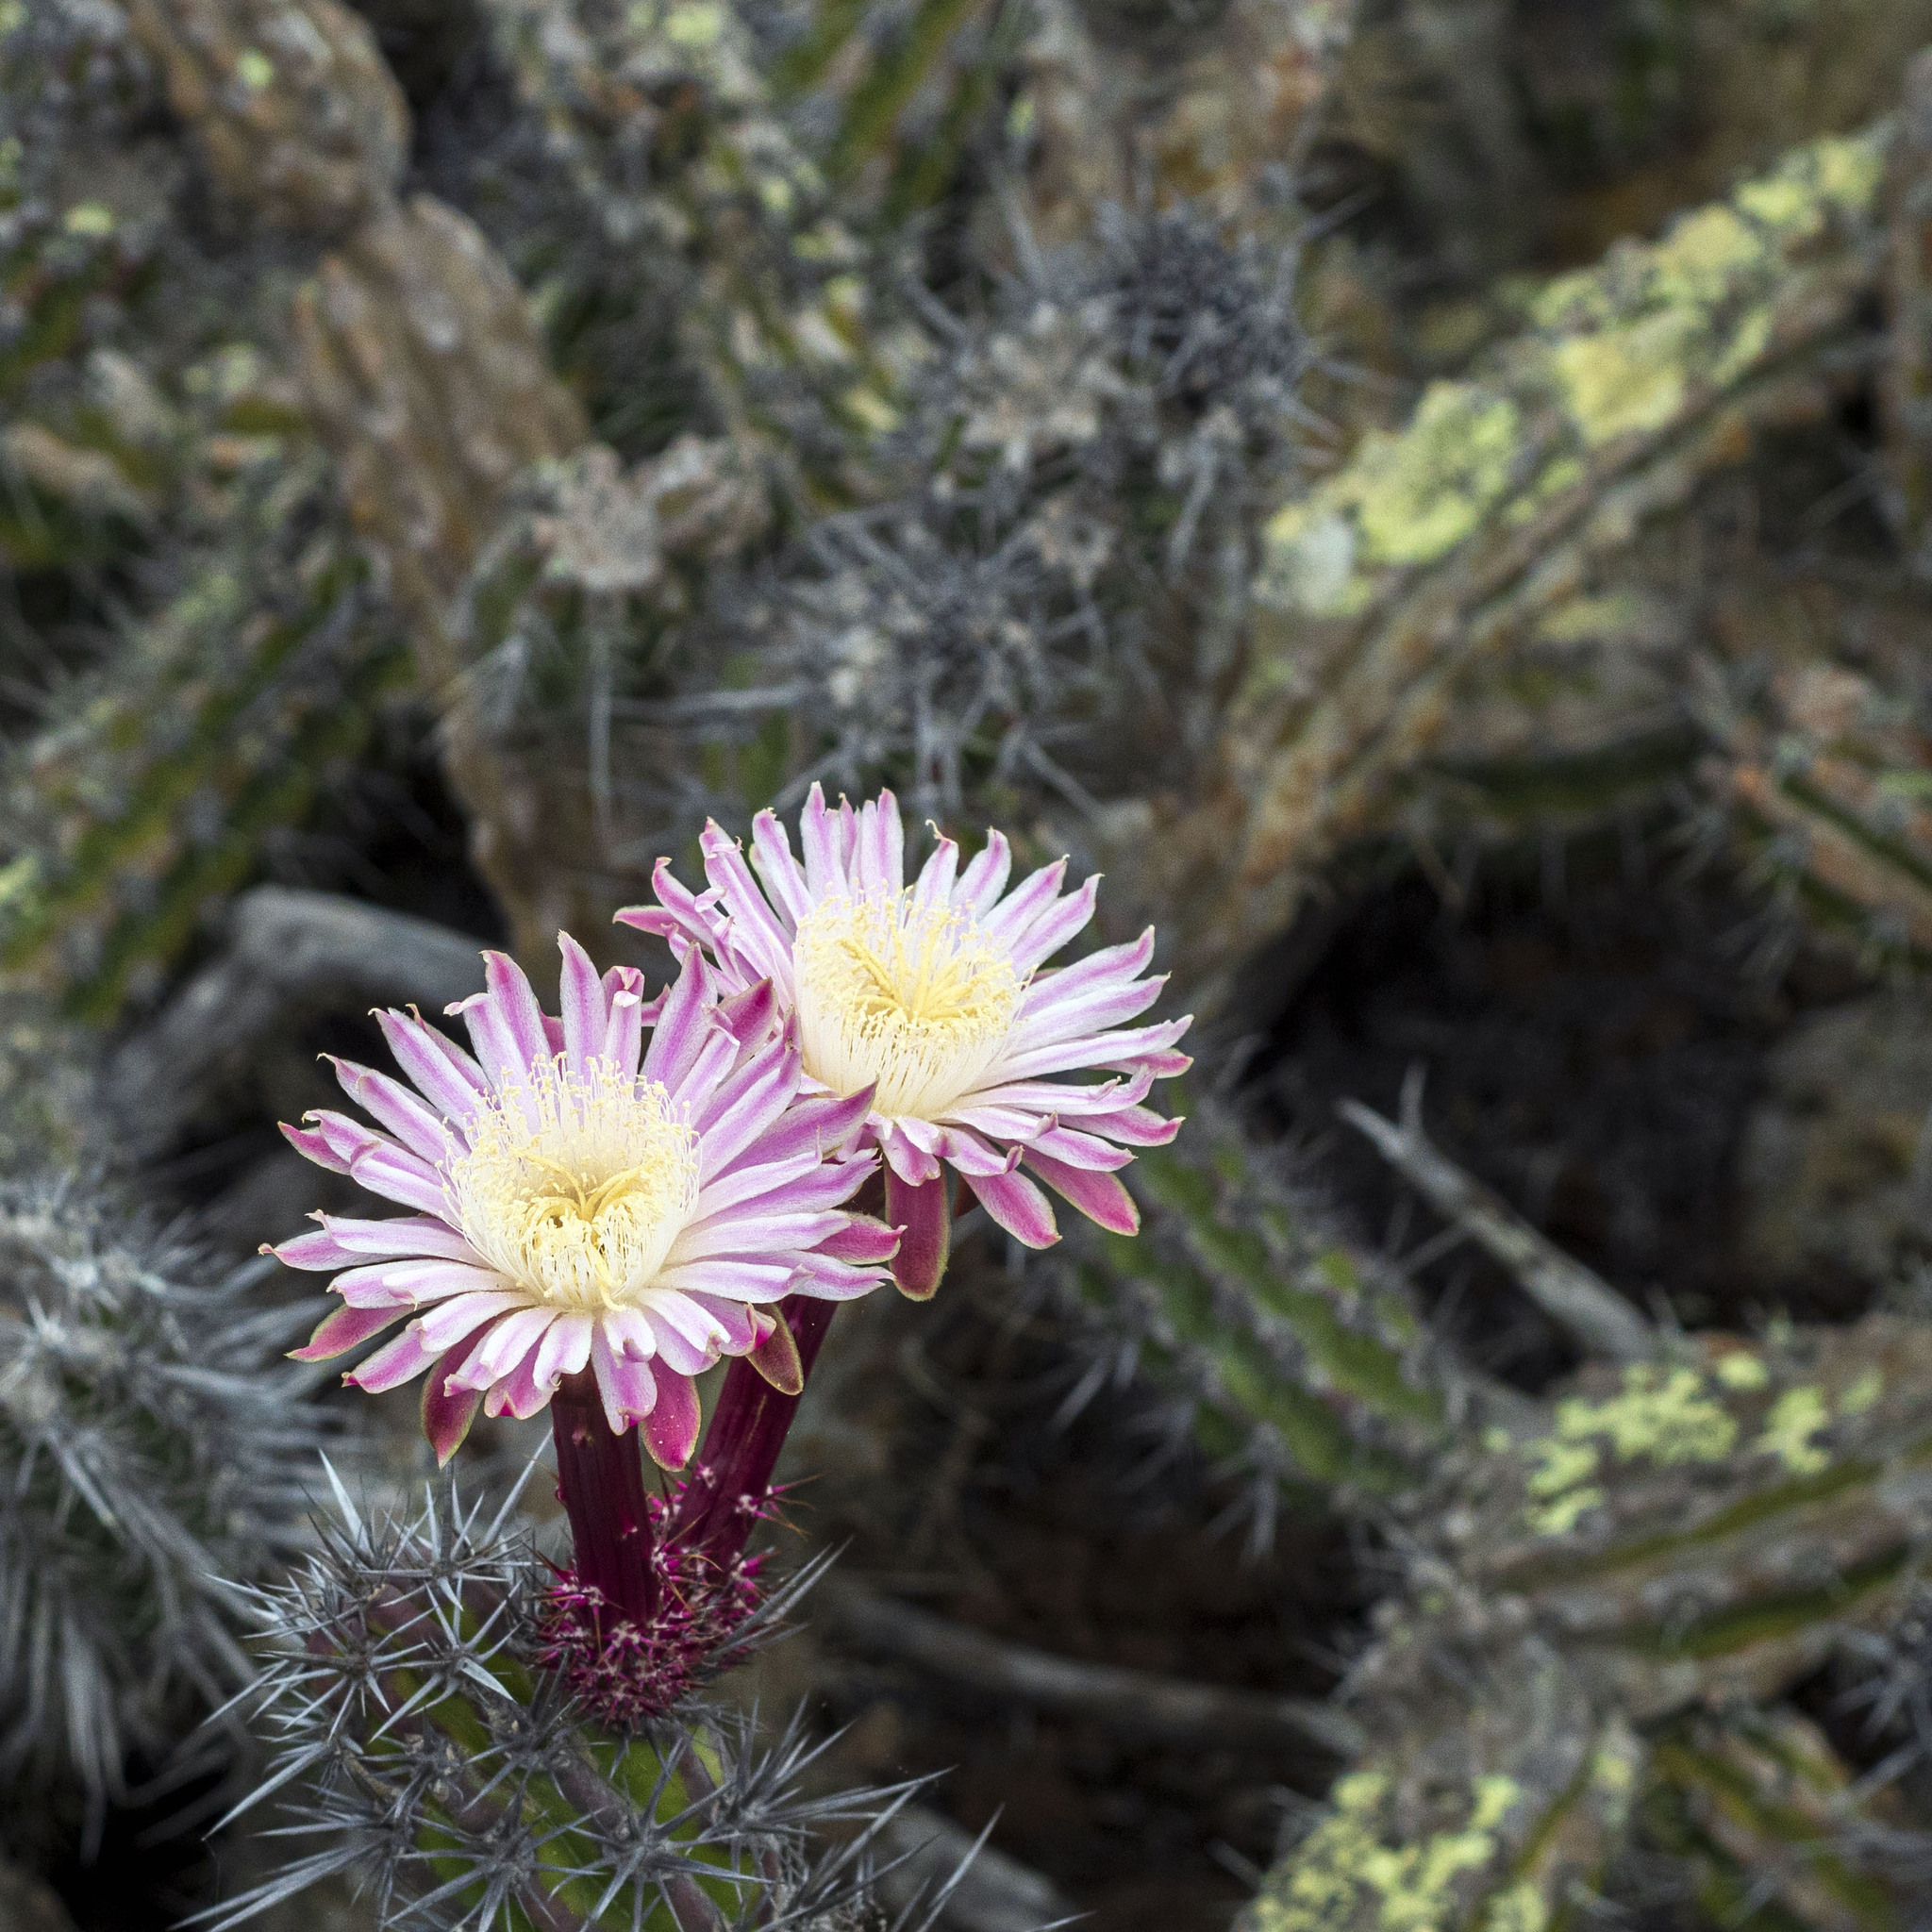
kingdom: Plantae
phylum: Tracheophyta
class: Magnoliopsida
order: Caryophyllales
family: Cactaceae
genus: Stenocereus
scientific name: Stenocereus gummosus
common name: Dagger cactus
